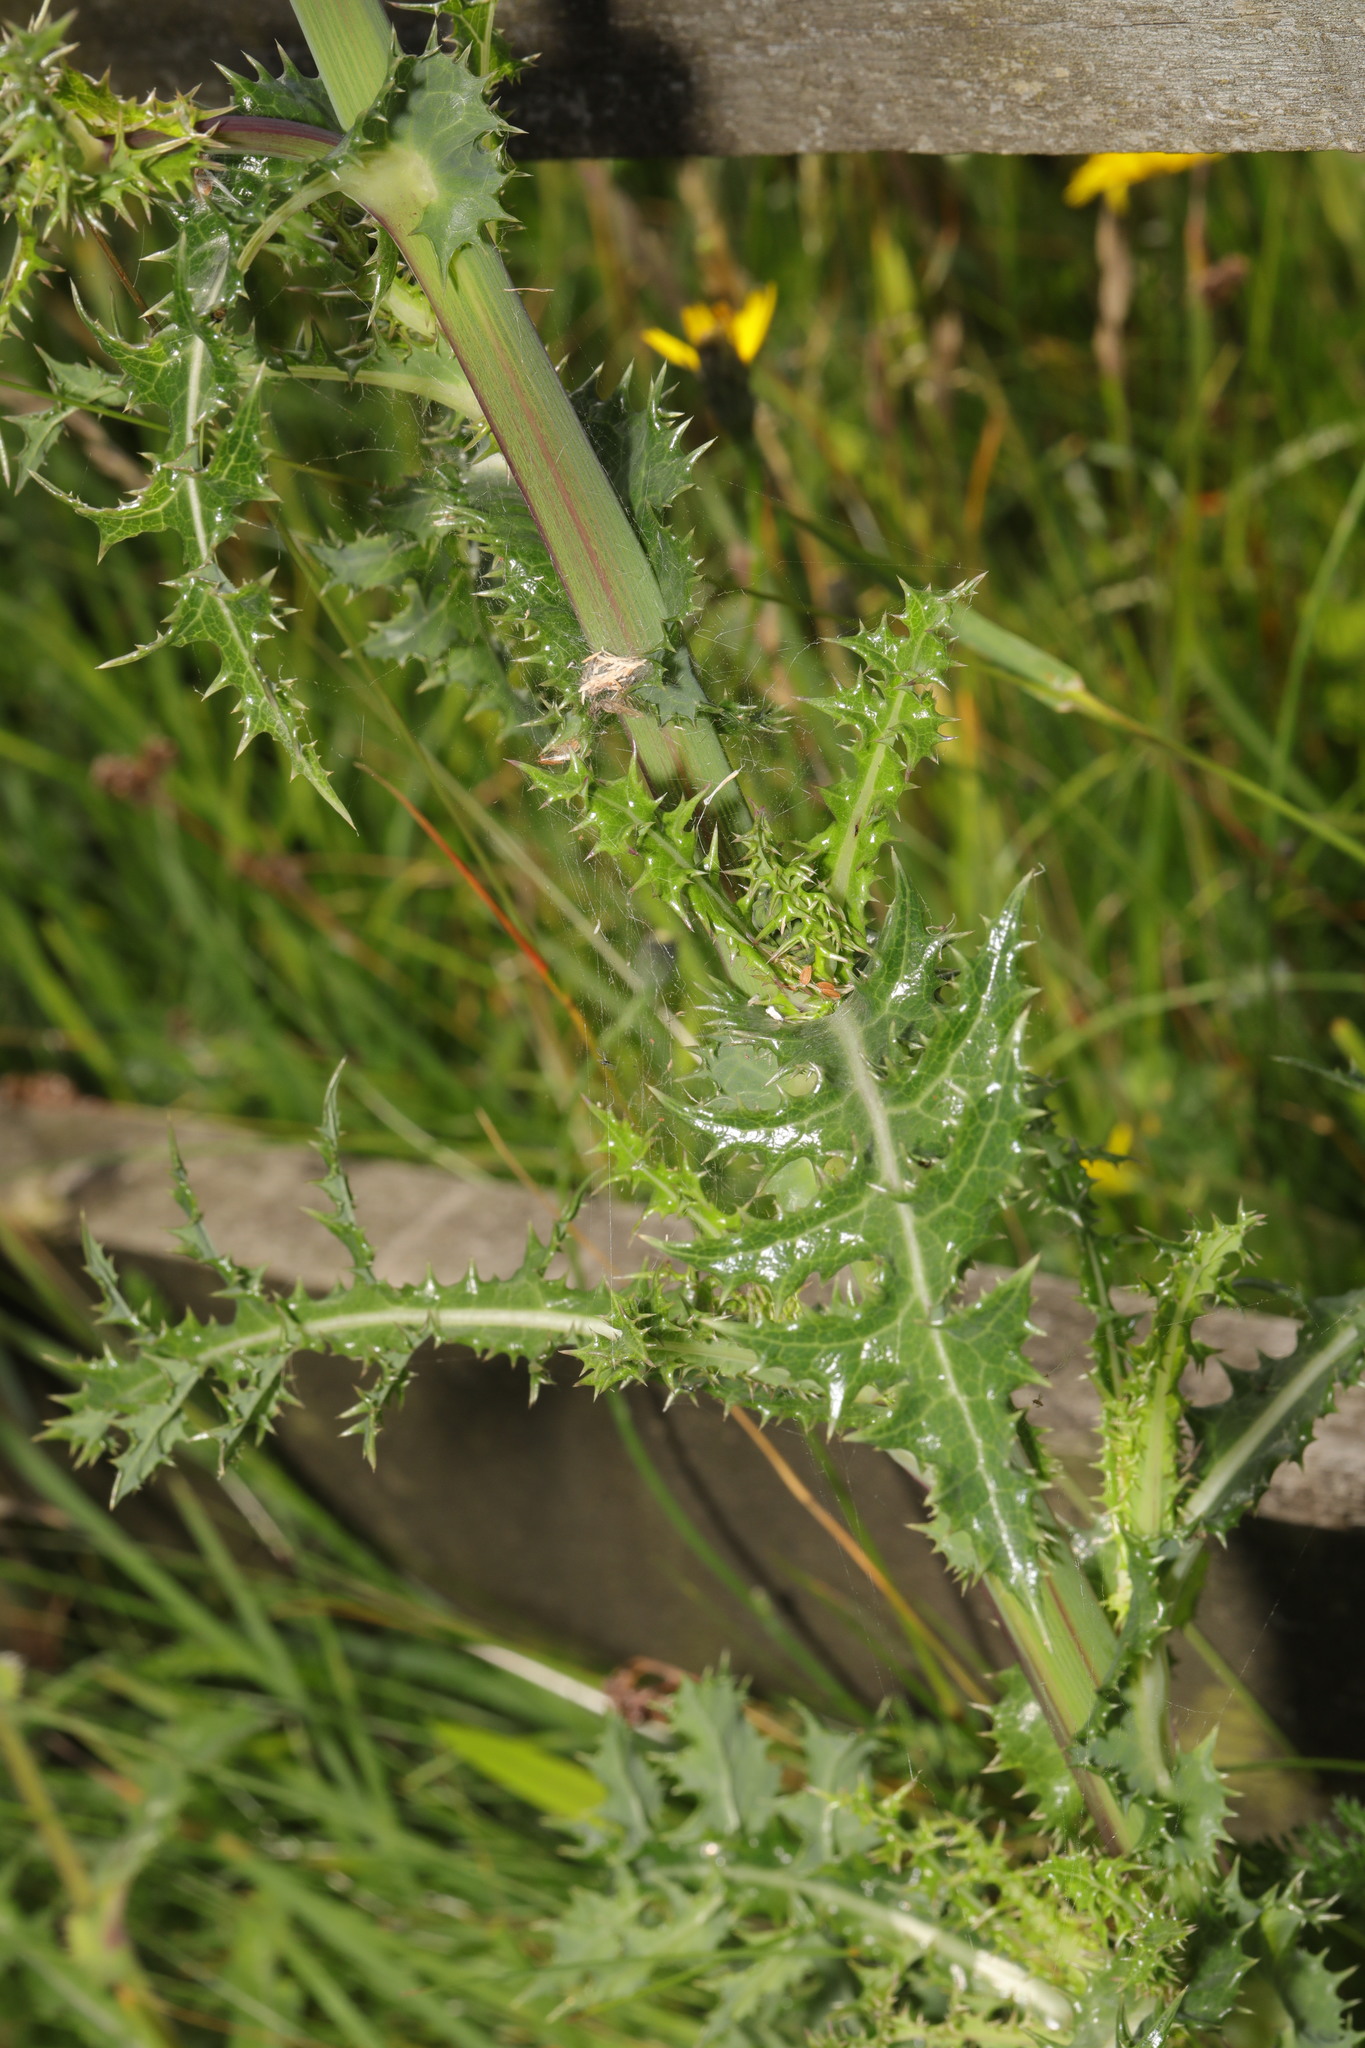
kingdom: Plantae
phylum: Tracheophyta
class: Magnoliopsida
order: Asterales
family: Asteraceae
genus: Sonchus
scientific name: Sonchus asper
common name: Prickly sow-thistle
